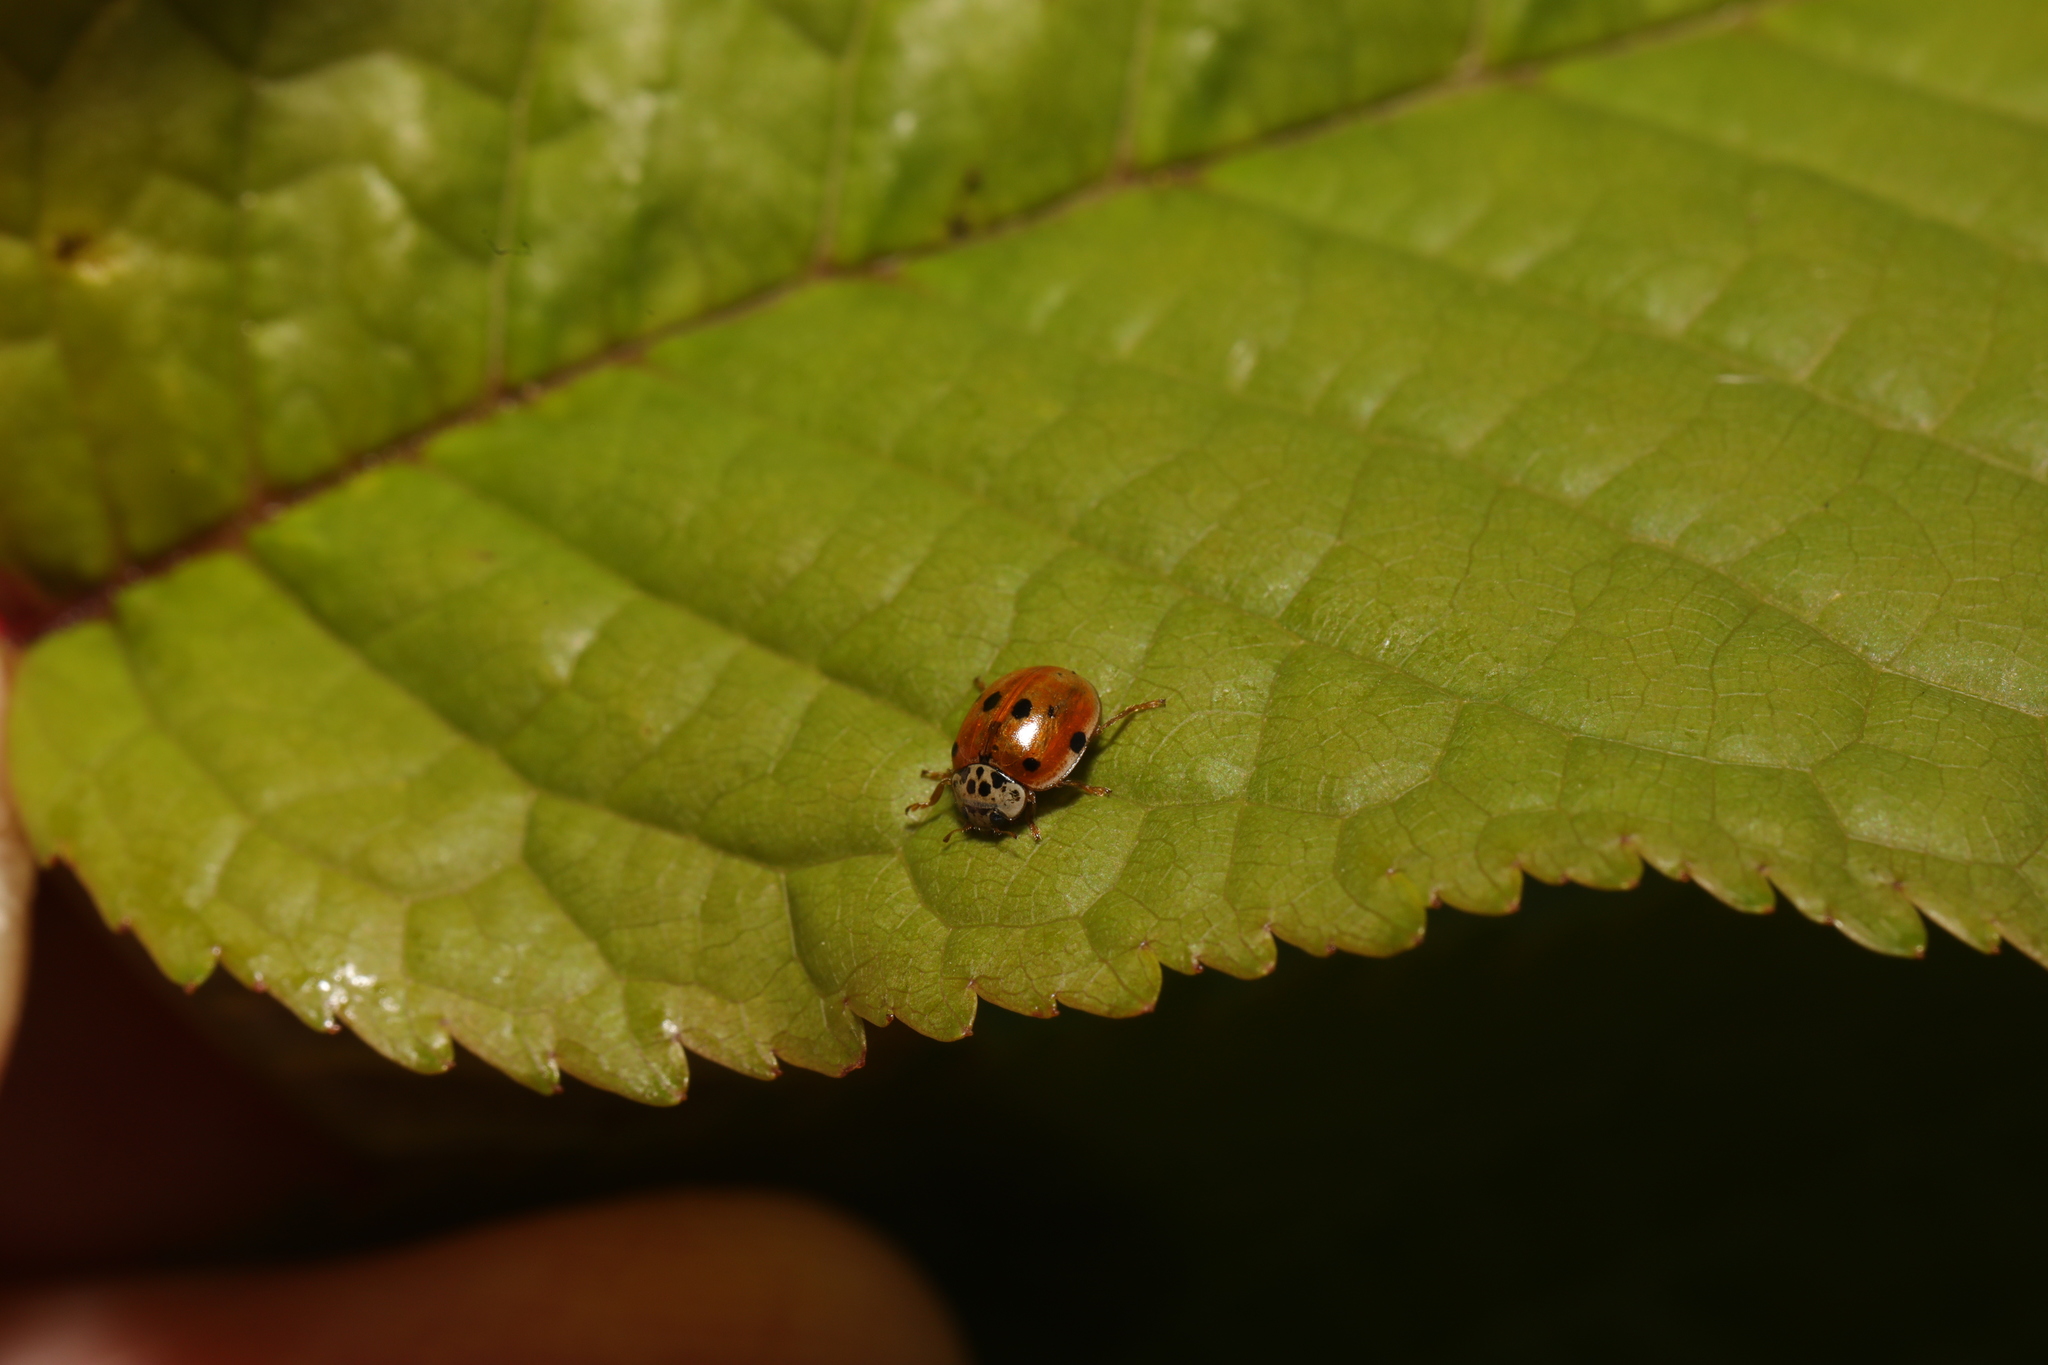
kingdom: Animalia
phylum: Arthropoda
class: Insecta
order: Coleoptera
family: Coccinellidae
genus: Adalia
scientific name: Adalia decempunctata
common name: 10-spot ladybird
